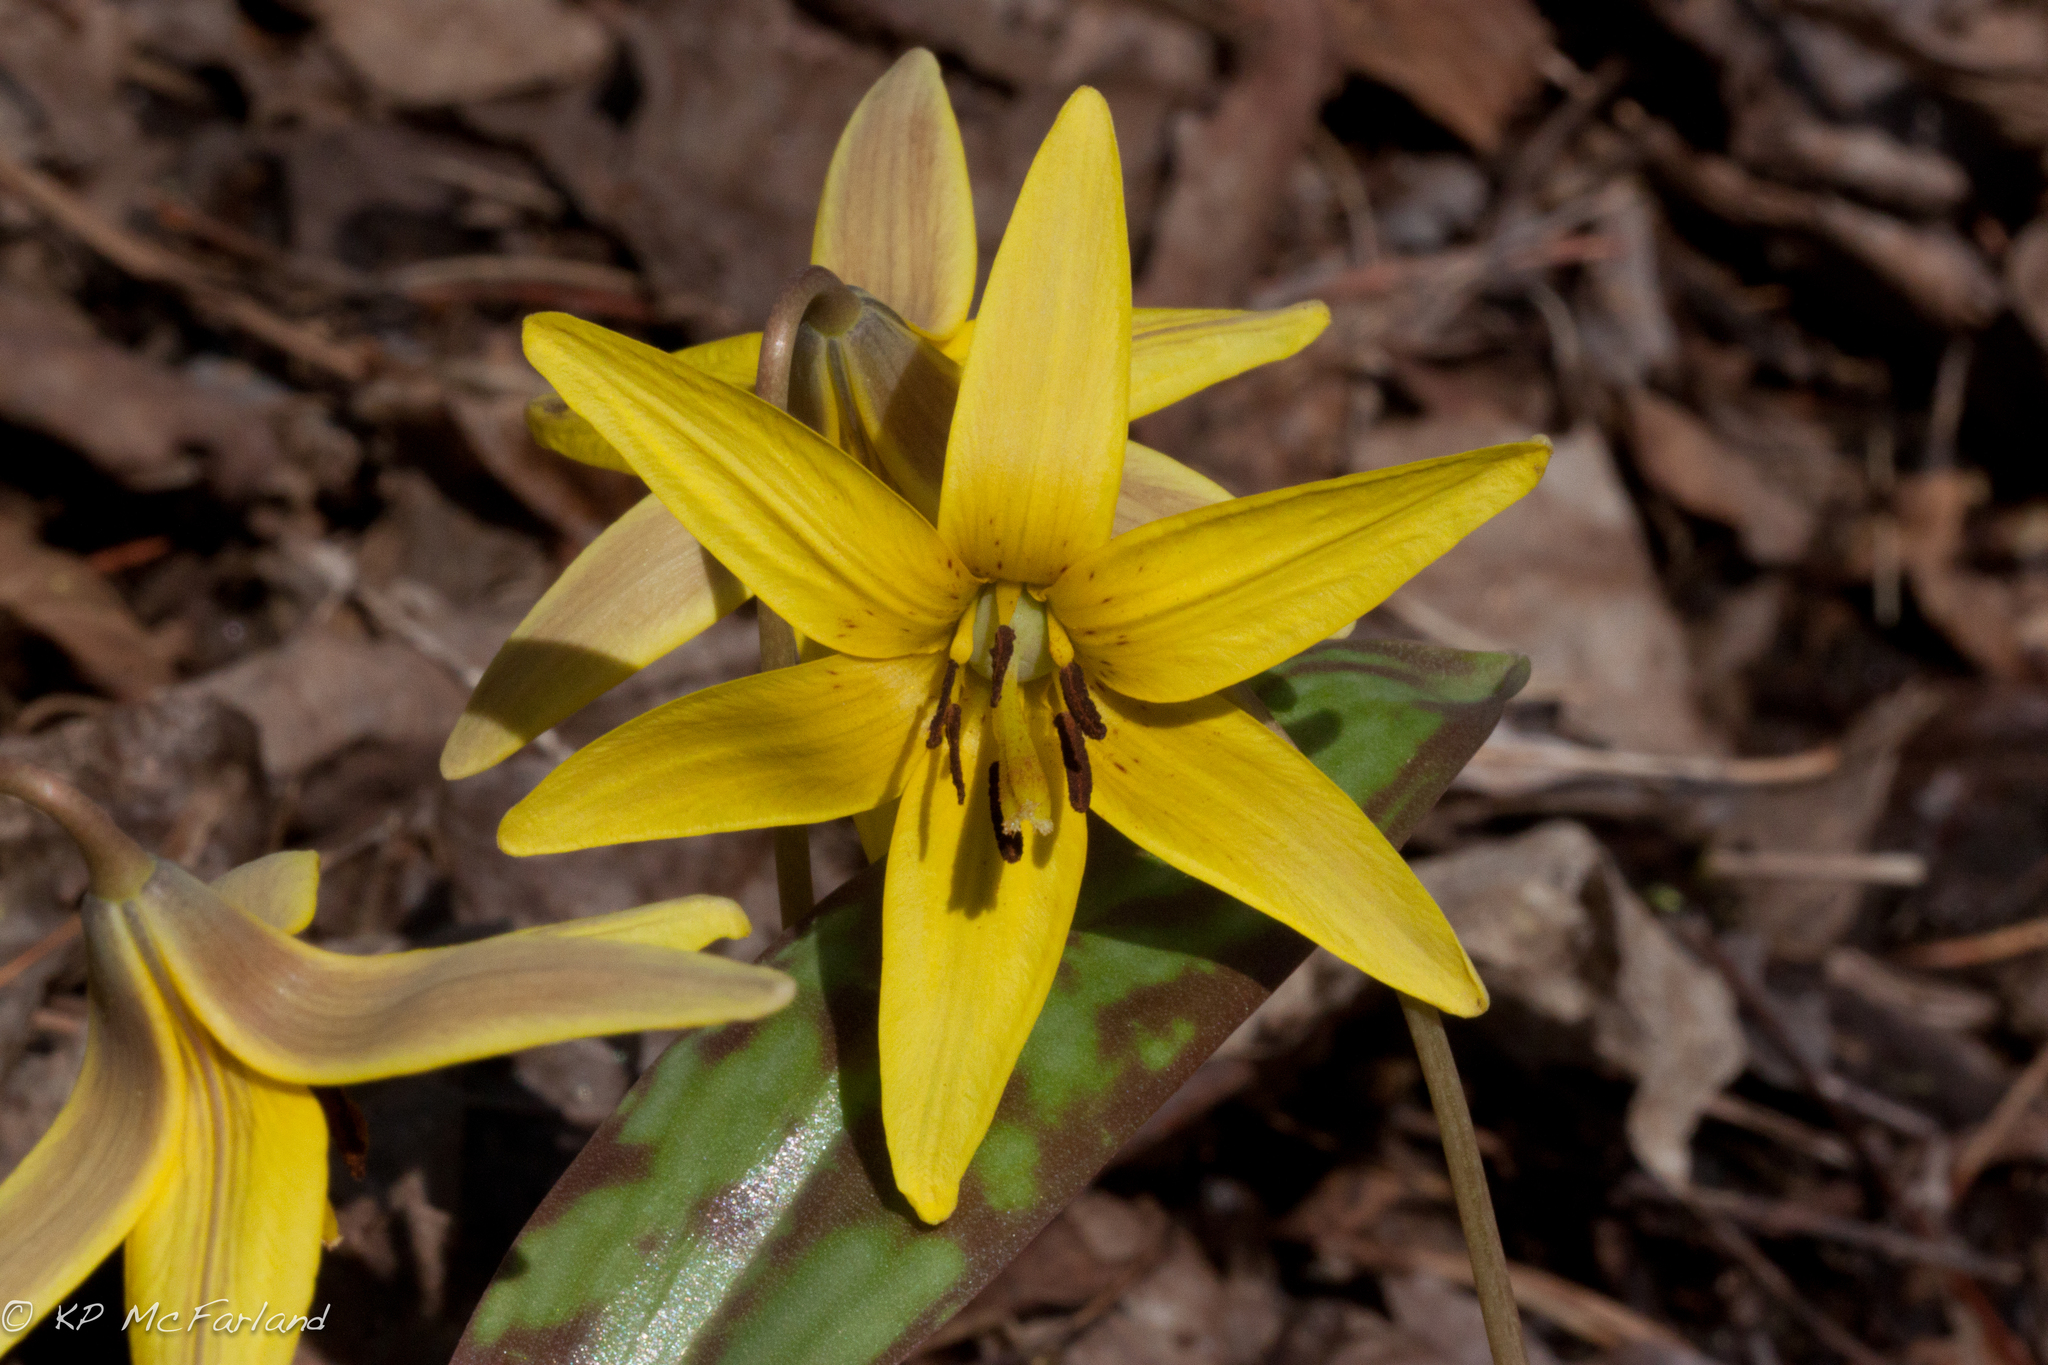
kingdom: Plantae
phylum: Tracheophyta
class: Liliopsida
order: Liliales
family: Liliaceae
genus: Erythronium
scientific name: Erythronium americanum
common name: Yellow adder's-tongue
